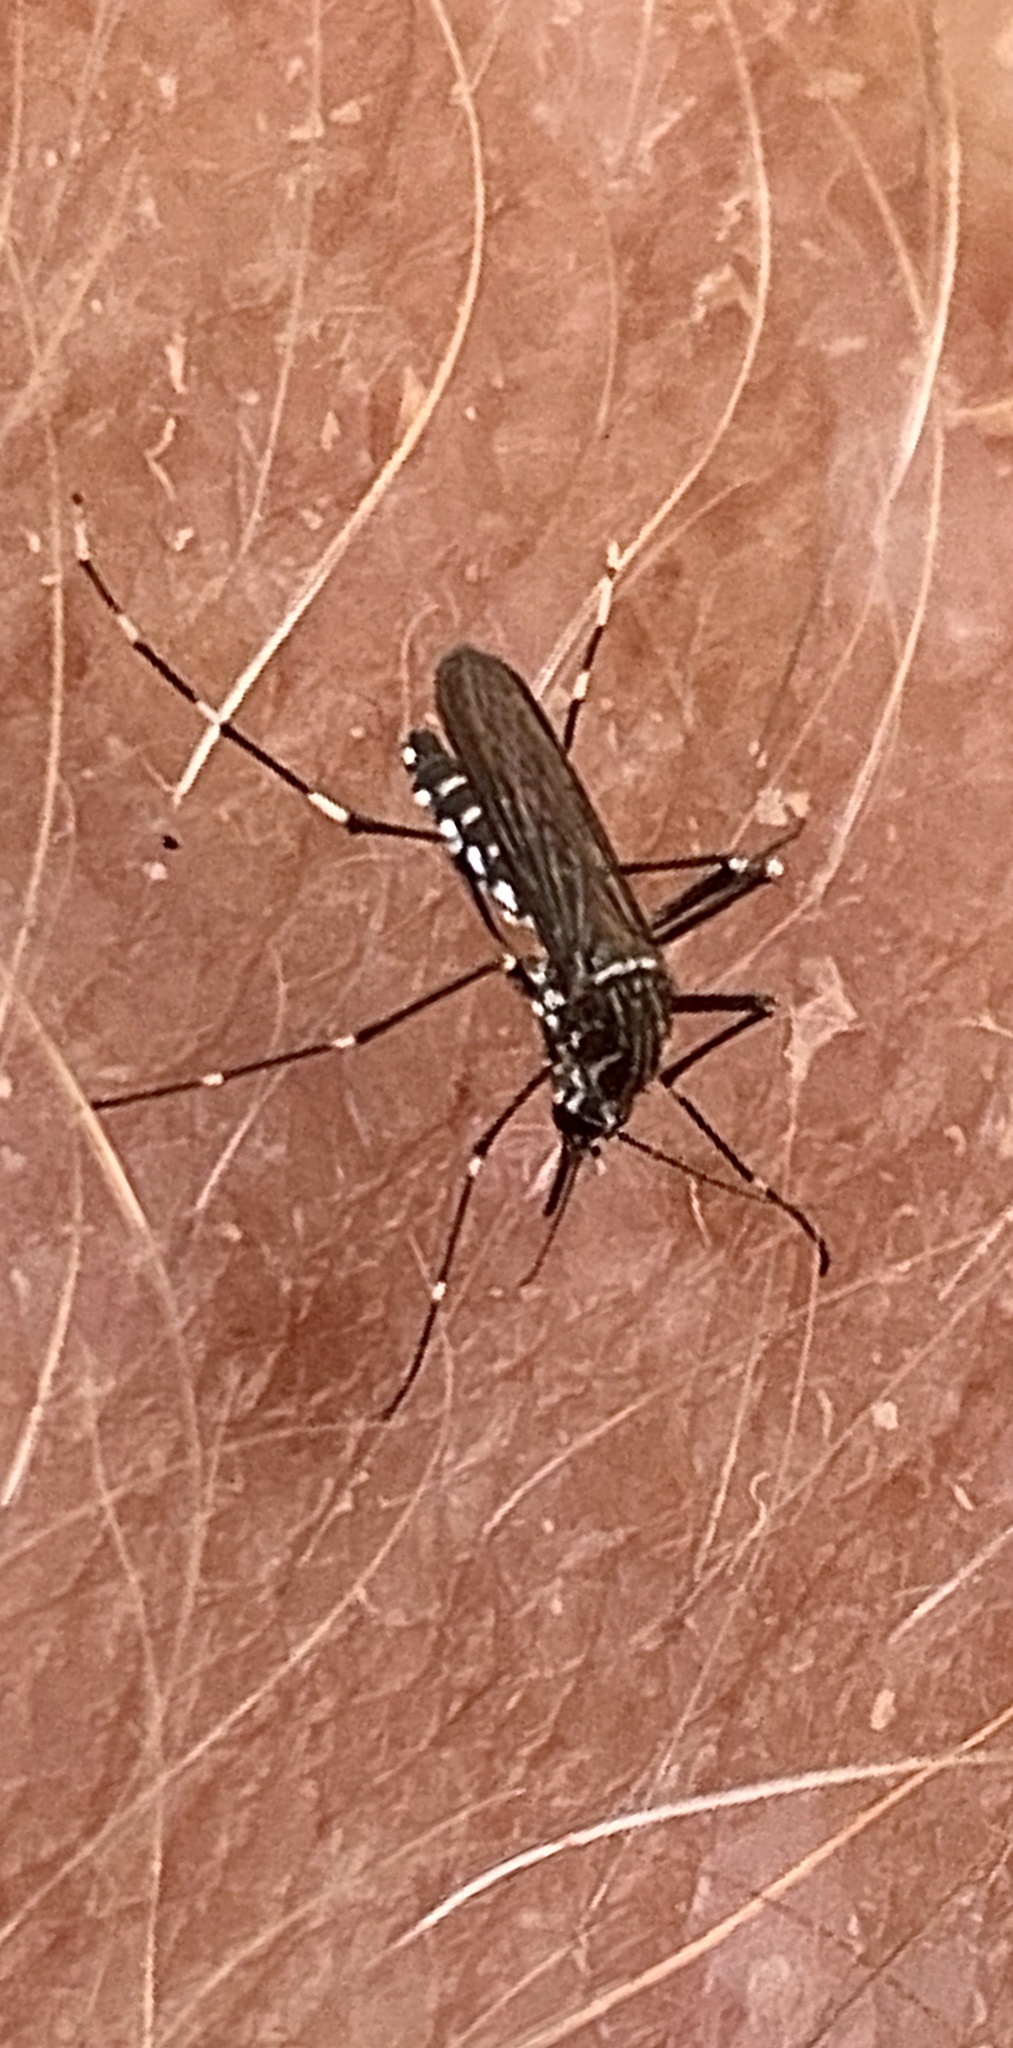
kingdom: Animalia
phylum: Arthropoda
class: Insecta
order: Diptera
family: Culicidae
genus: Aedes
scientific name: Aedes aegypti
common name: Yellow fever mosquito
